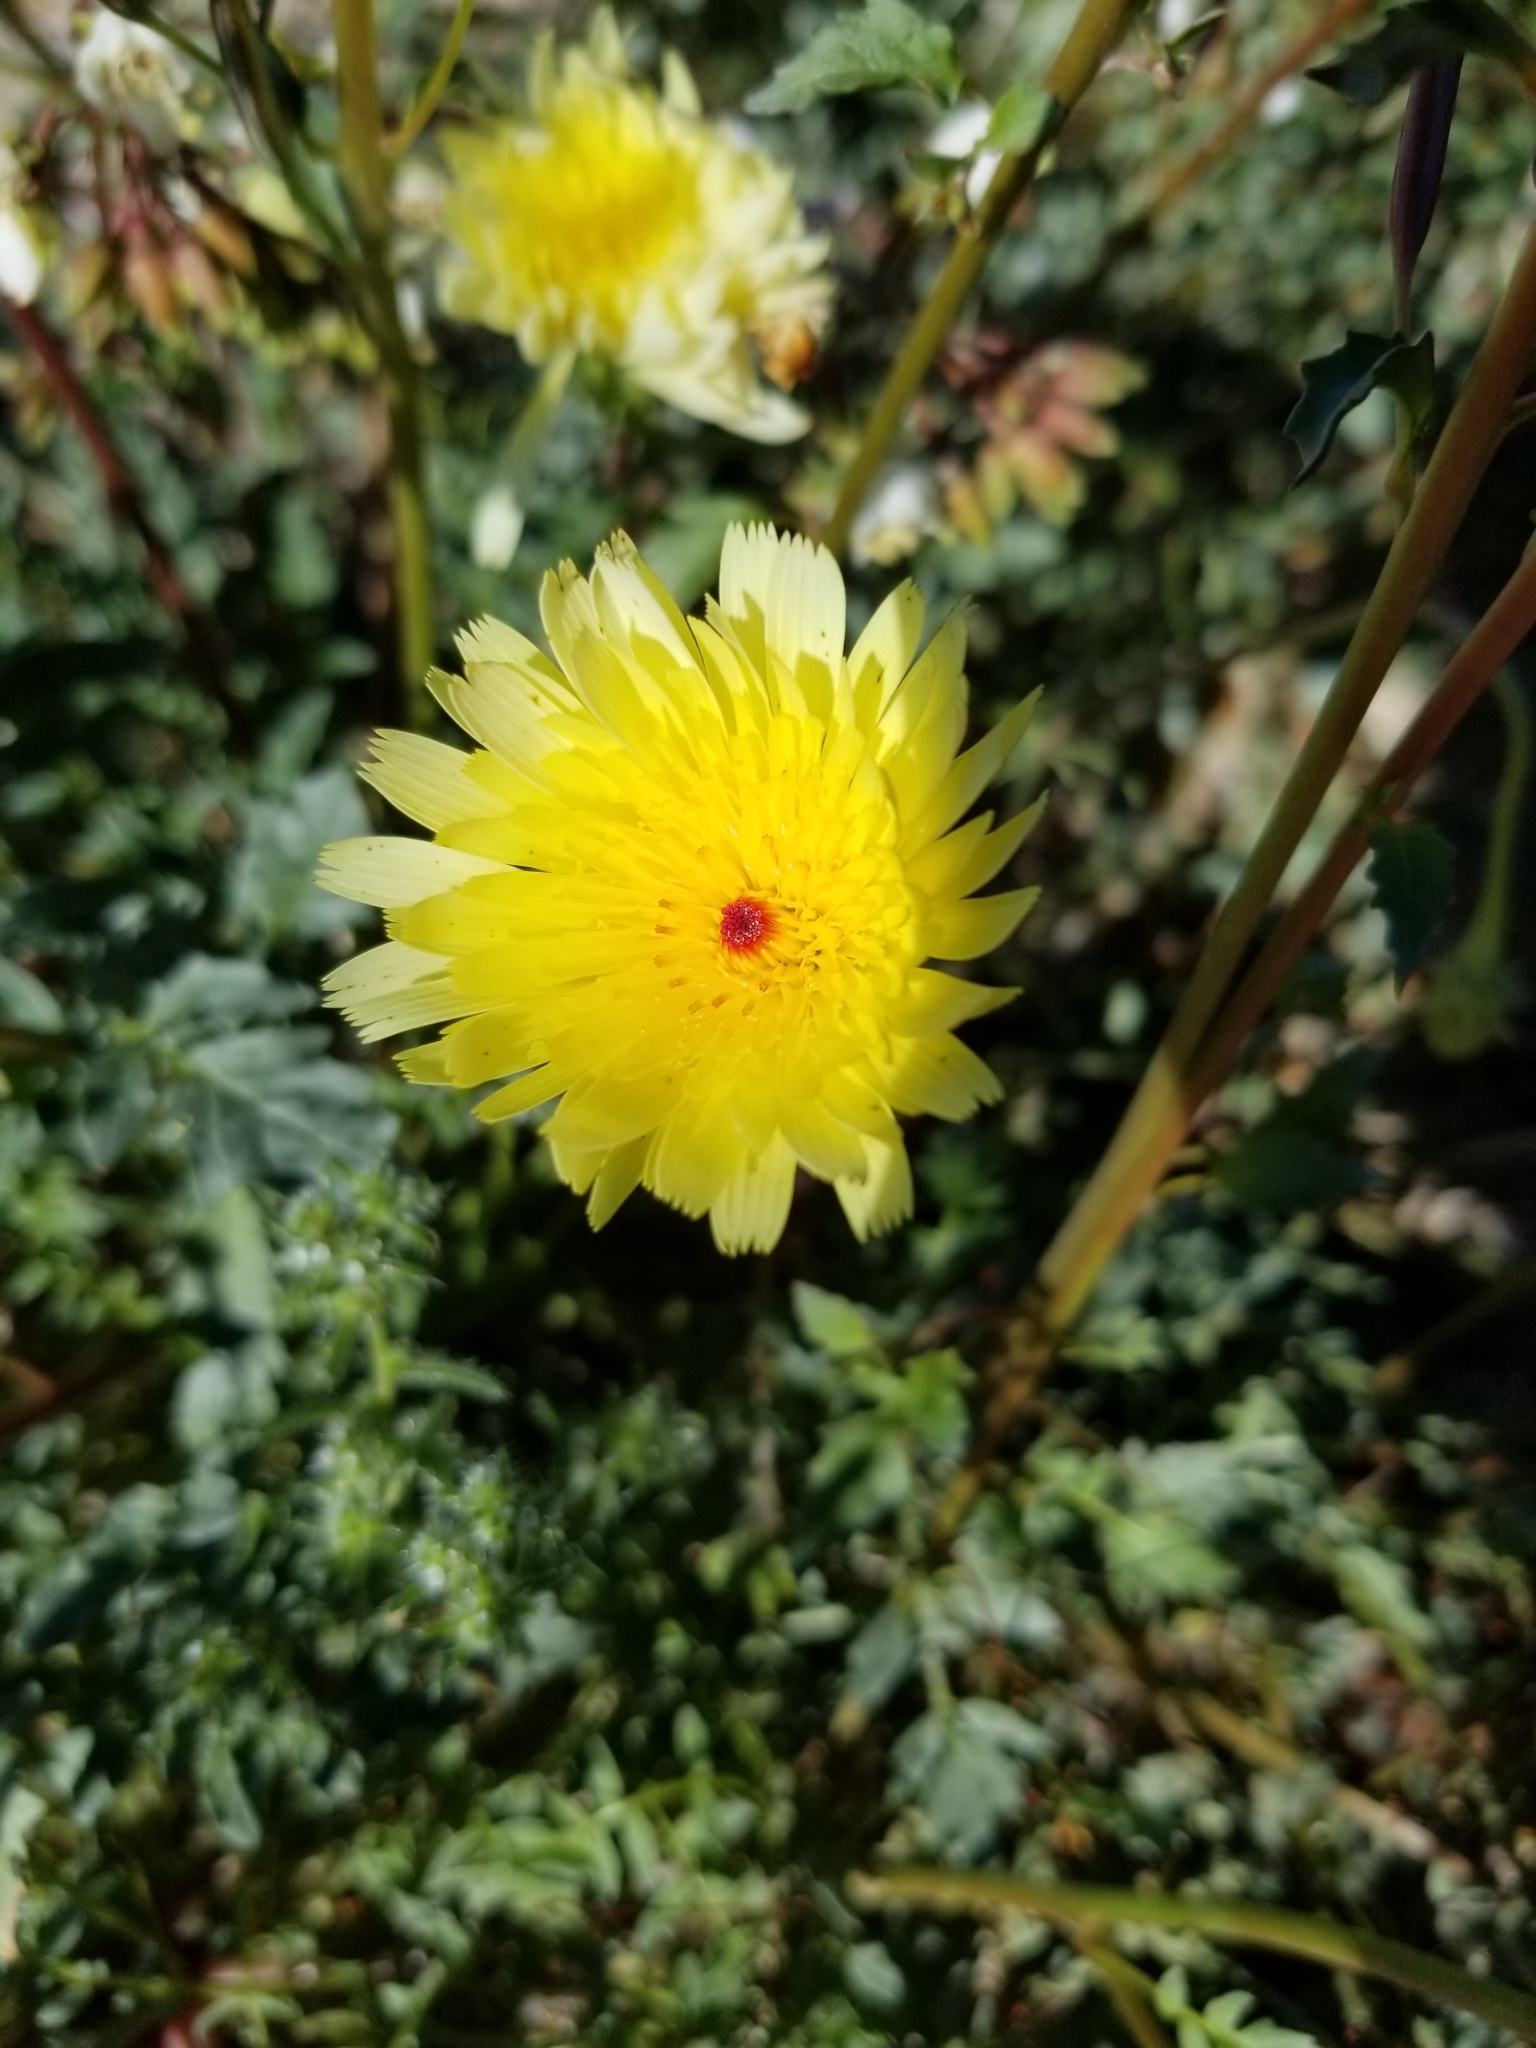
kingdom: Plantae
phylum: Tracheophyta
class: Magnoliopsida
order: Asterales
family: Asteraceae
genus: Malacothrix
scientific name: Malacothrix glabrata
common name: Smooth desert-dandelion
